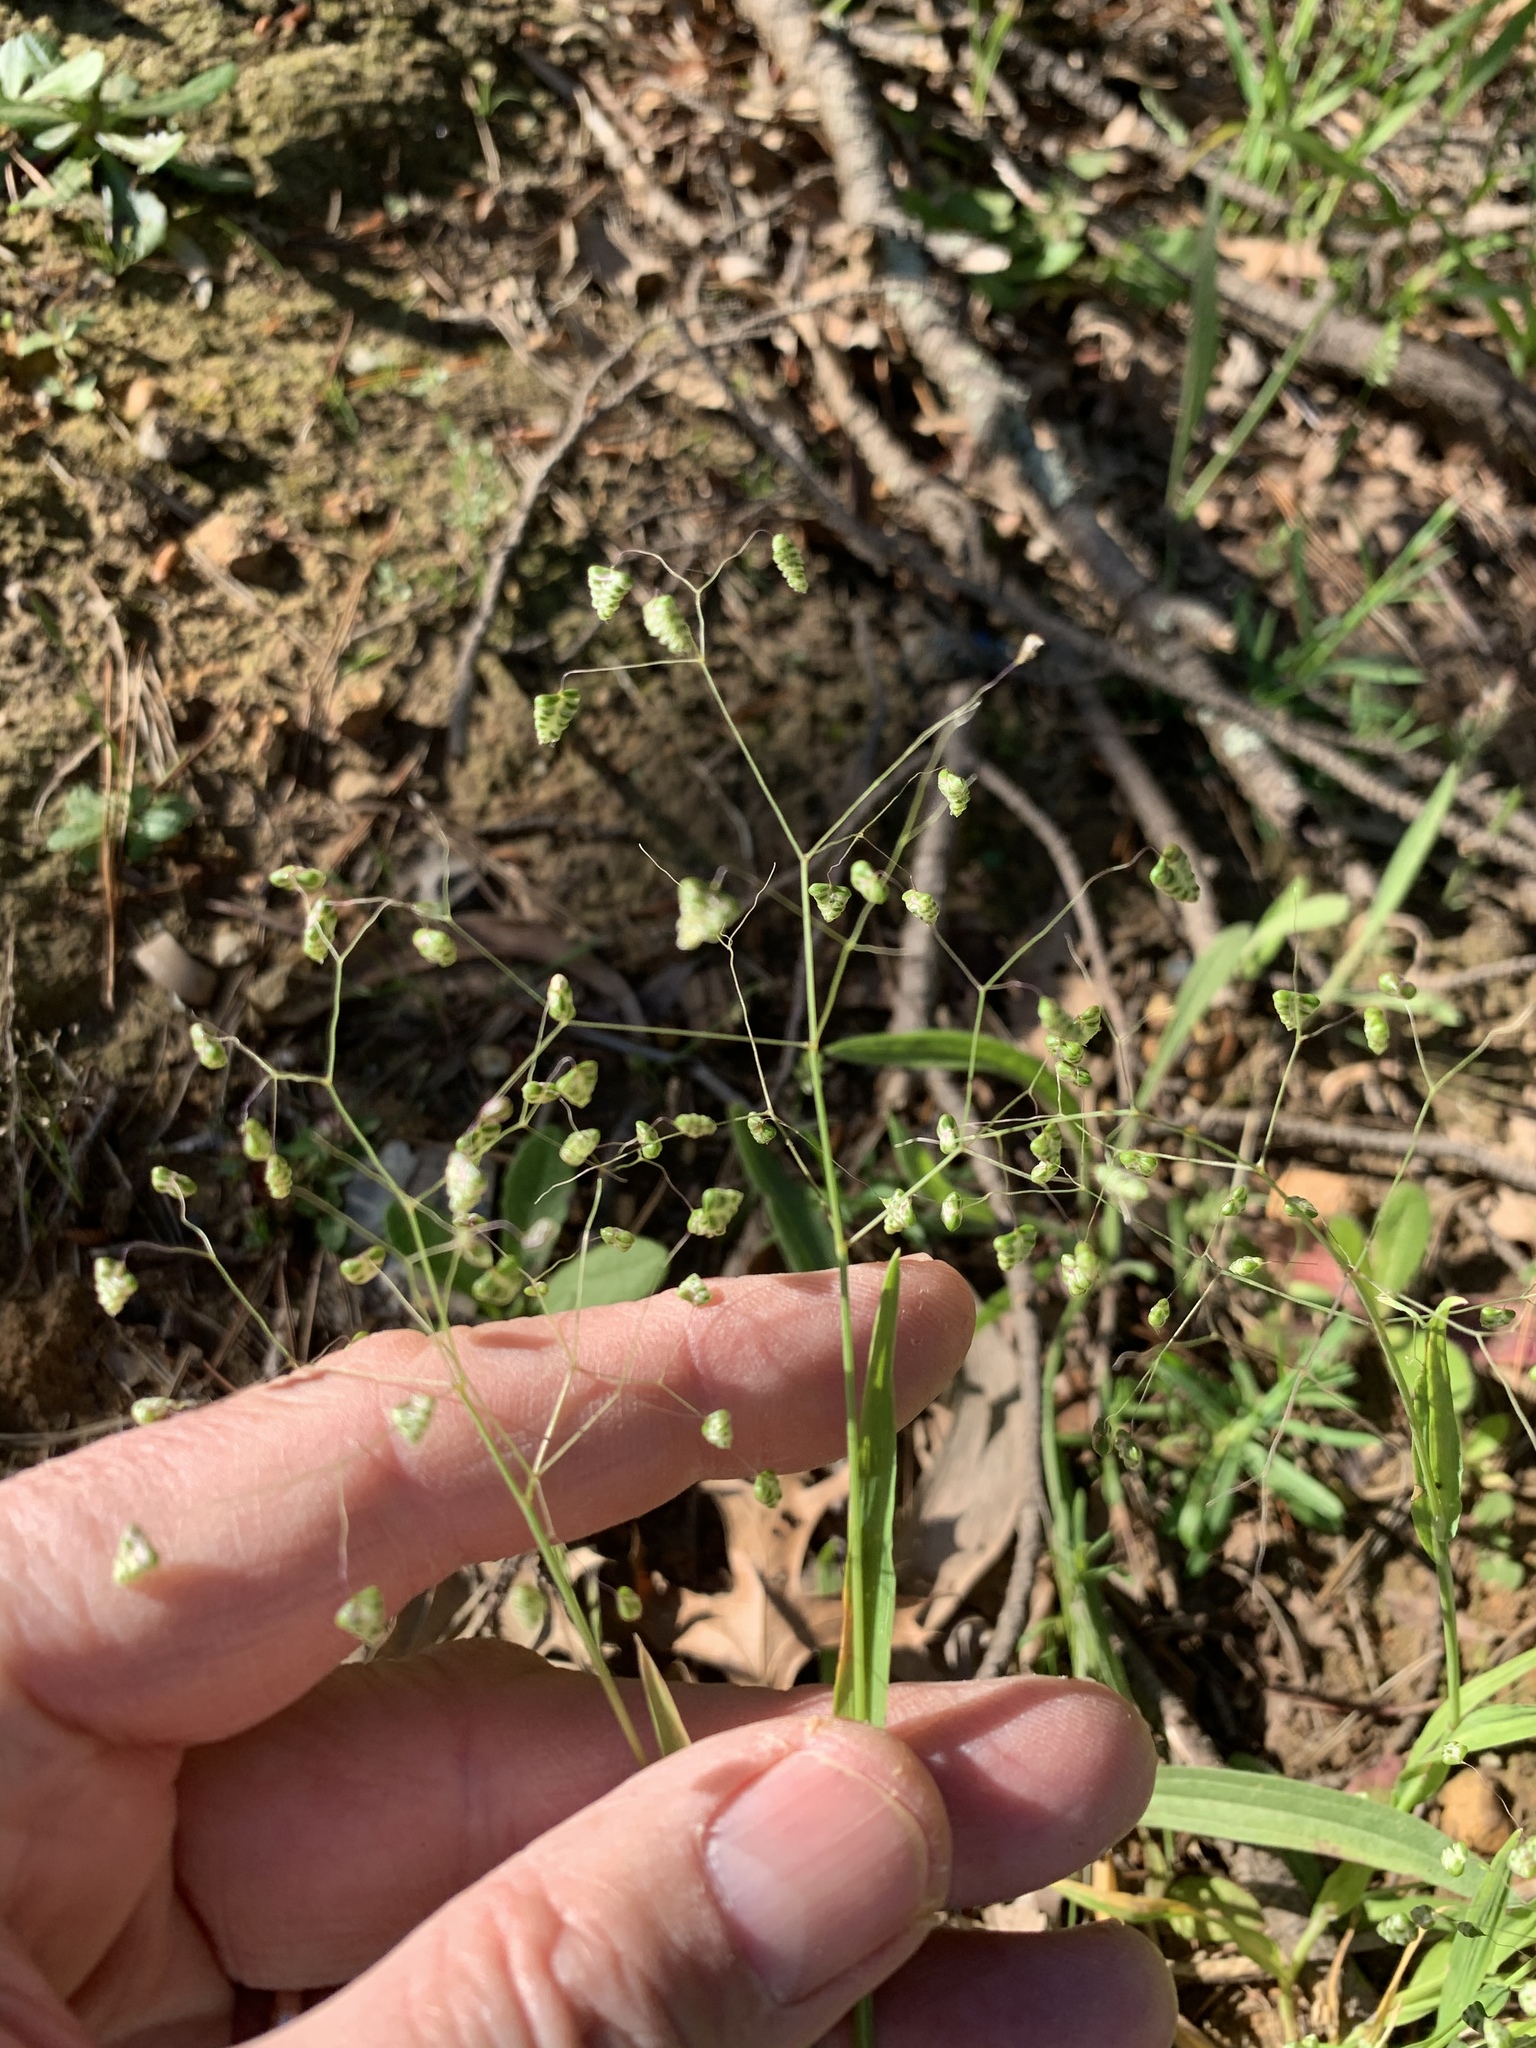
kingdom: Plantae
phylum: Tracheophyta
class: Liliopsida
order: Poales
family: Poaceae
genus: Briza
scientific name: Briza minor
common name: Lesser quaking-grass
